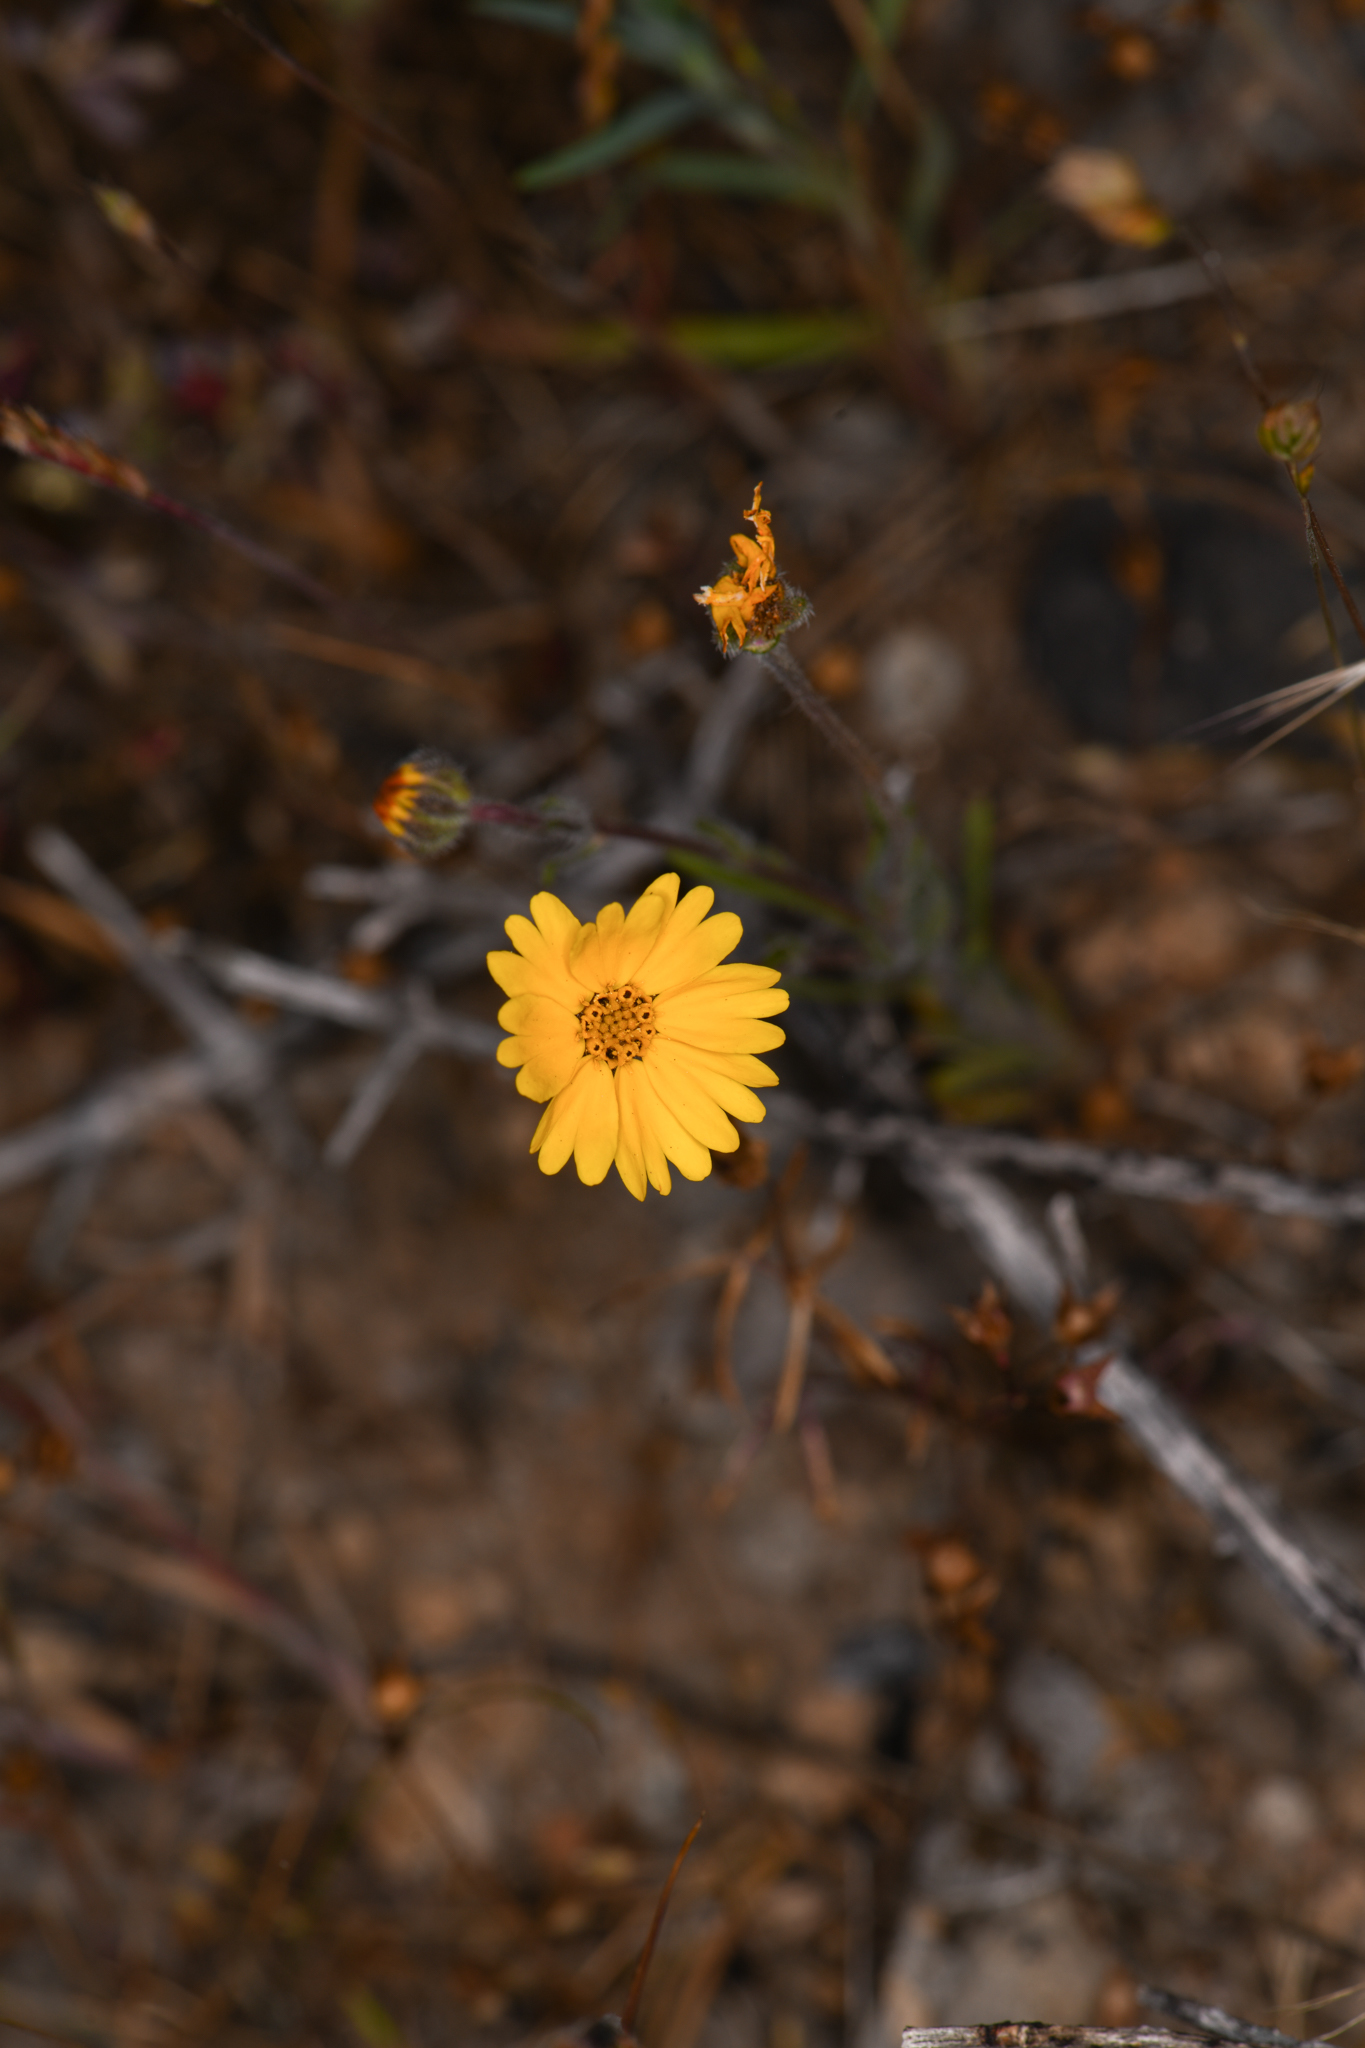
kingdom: Plantae
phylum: Tracheophyta
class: Magnoliopsida
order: Asterales
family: Asteraceae
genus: Jensia
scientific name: Jensia rammii
